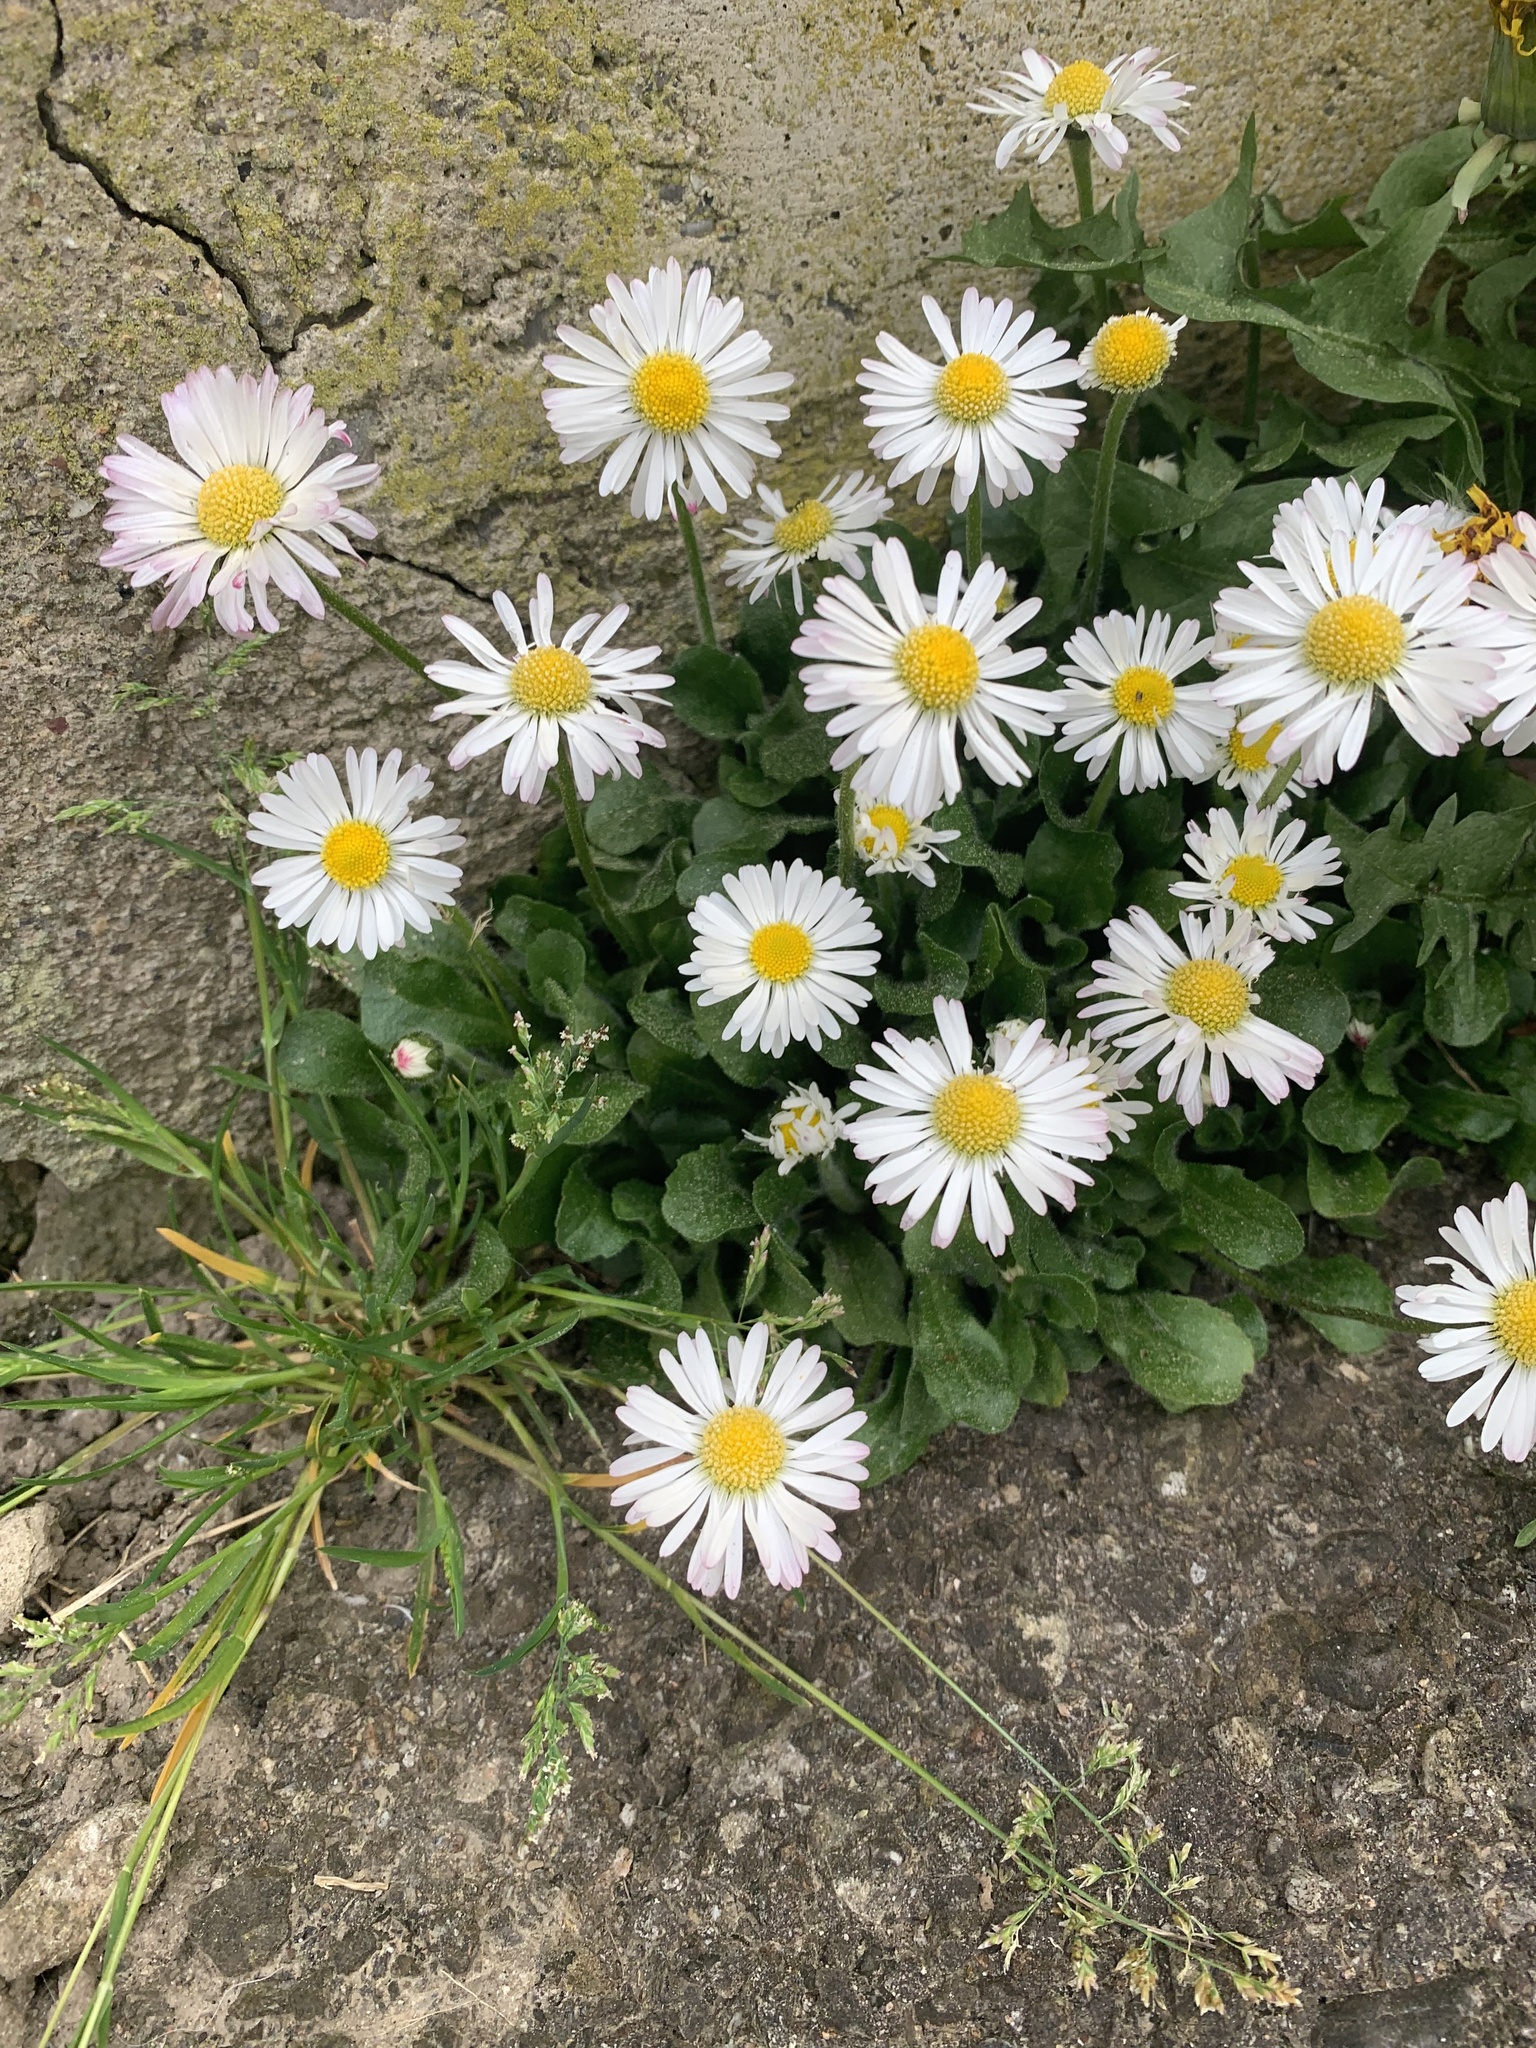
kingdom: Plantae
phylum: Tracheophyta
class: Magnoliopsida
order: Asterales
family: Asteraceae
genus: Bellis
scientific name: Bellis perennis
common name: Lawndaisy
